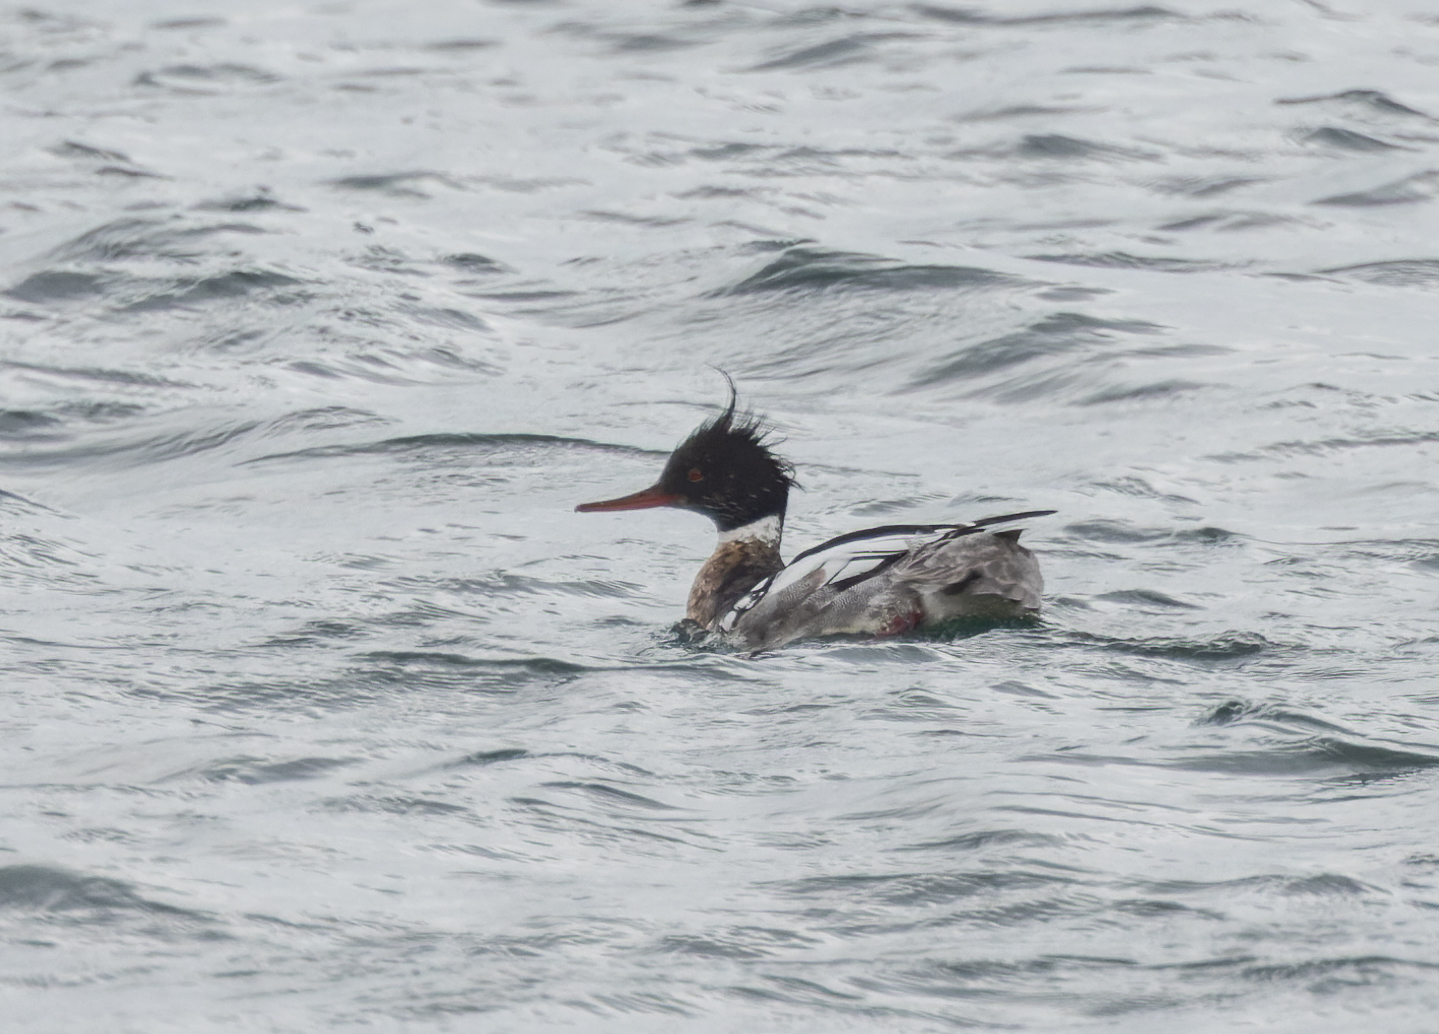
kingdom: Animalia
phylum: Chordata
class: Aves
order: Anseriformes
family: Anatidae
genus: Mergus
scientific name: Mergus serrator
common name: Red-breasted merganser
